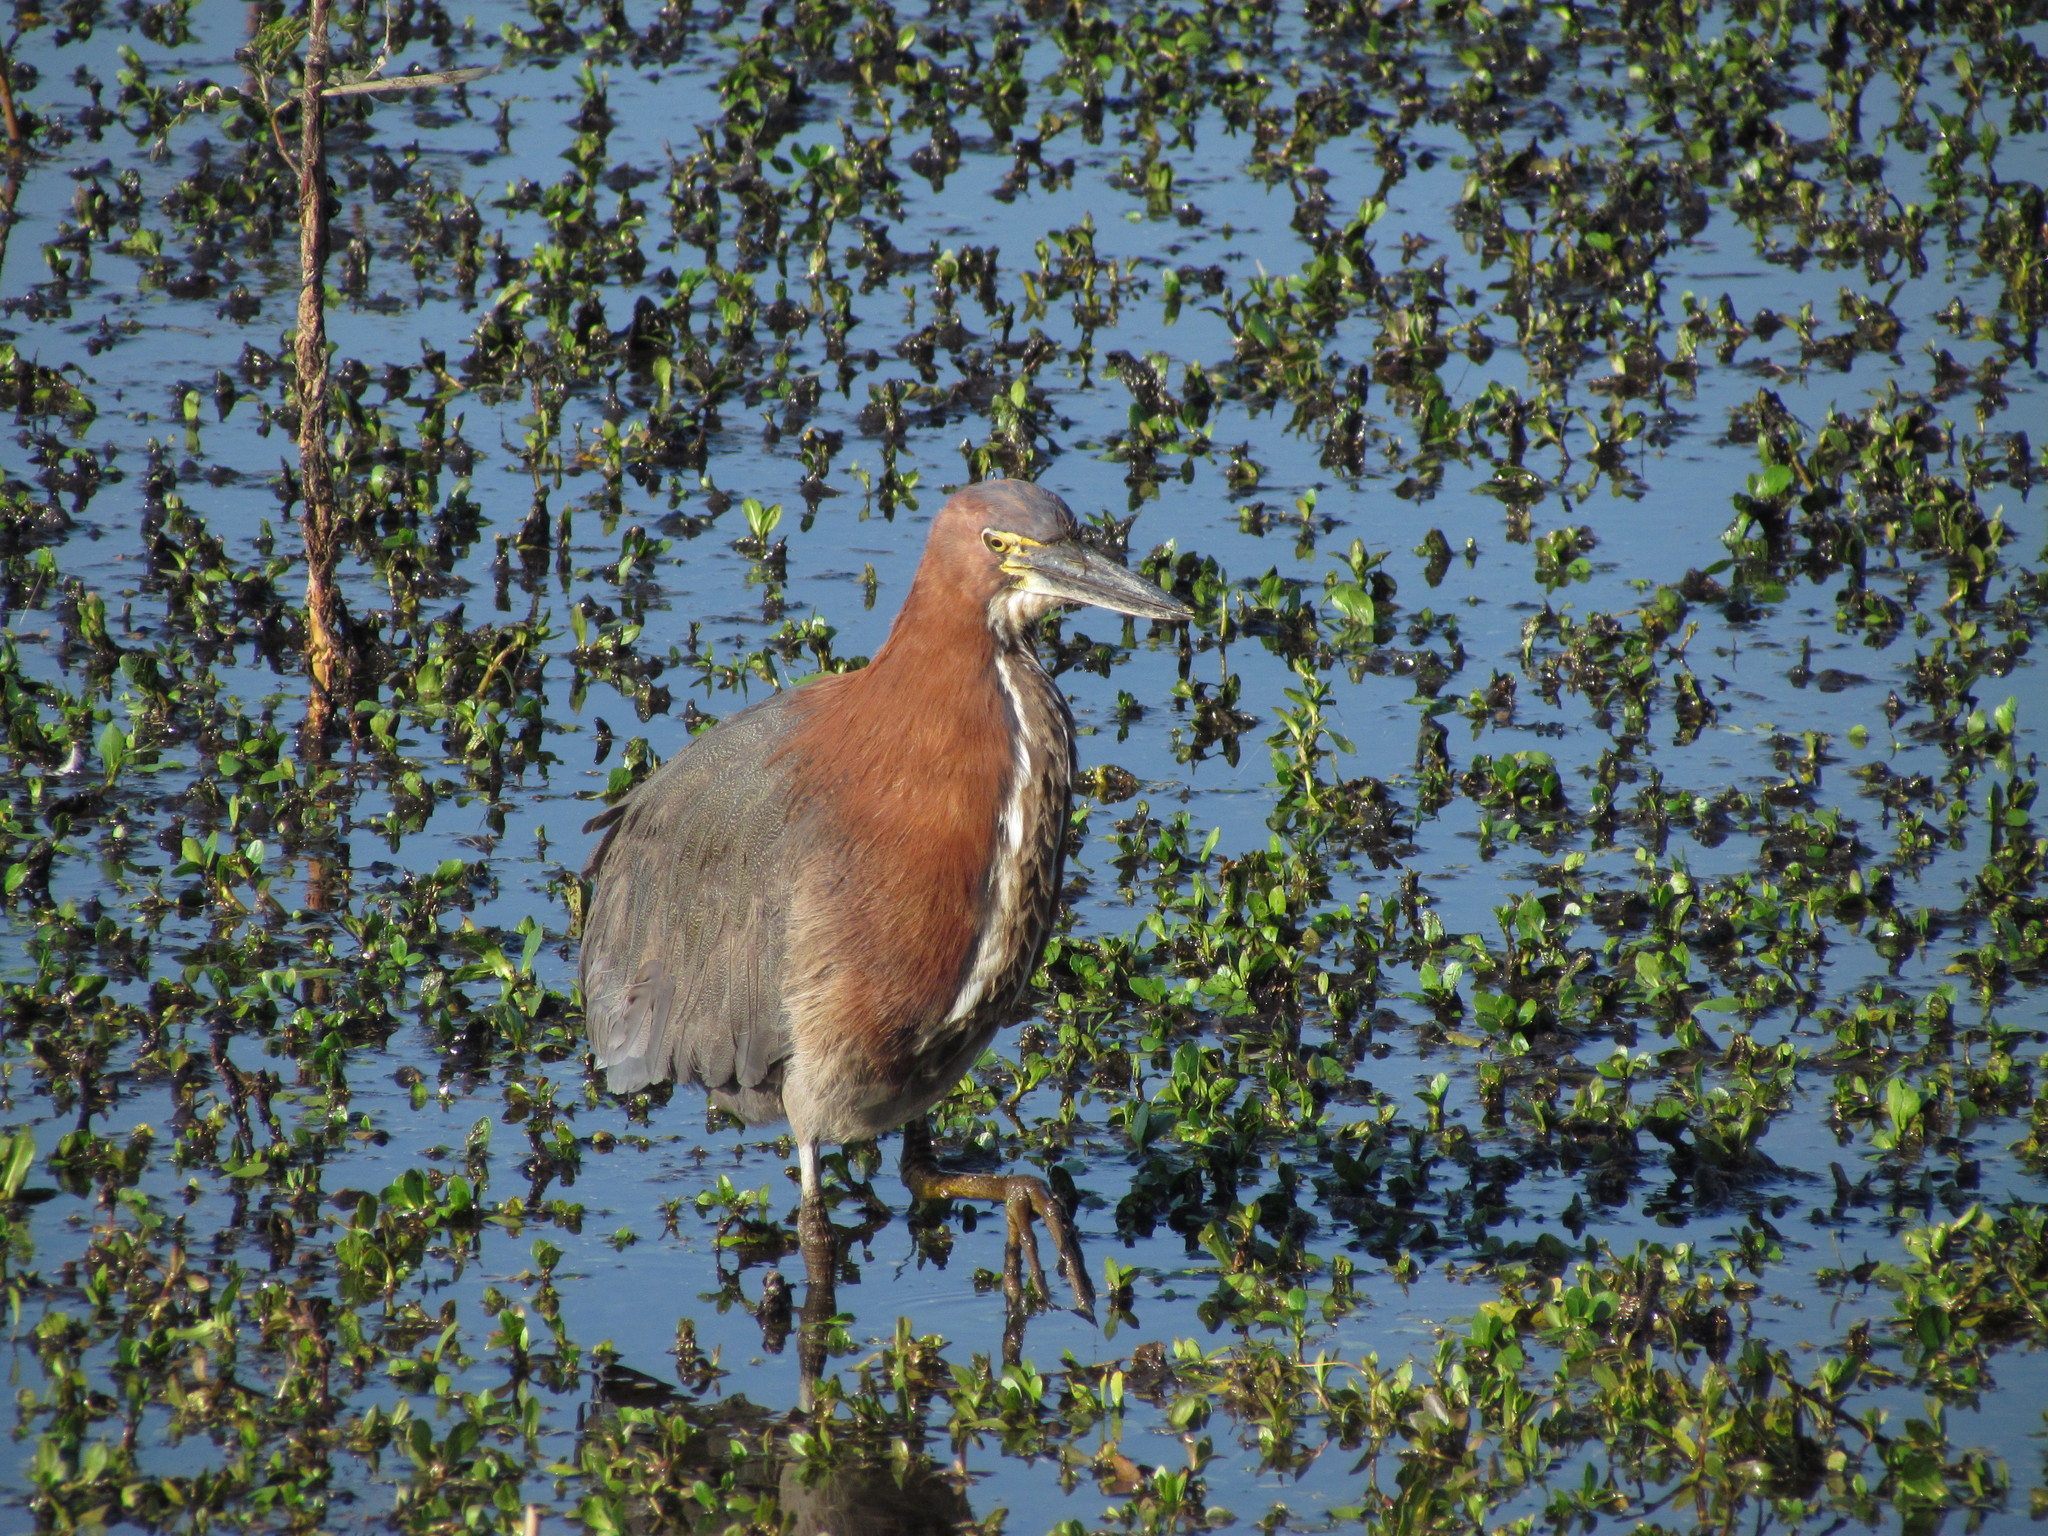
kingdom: Animalia
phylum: Chordata
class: Aves
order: Pelecaniformes
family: Ardeidae
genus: Tigrisoma
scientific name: Tigrisoma lineatum
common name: Rufescent tiger-heron
